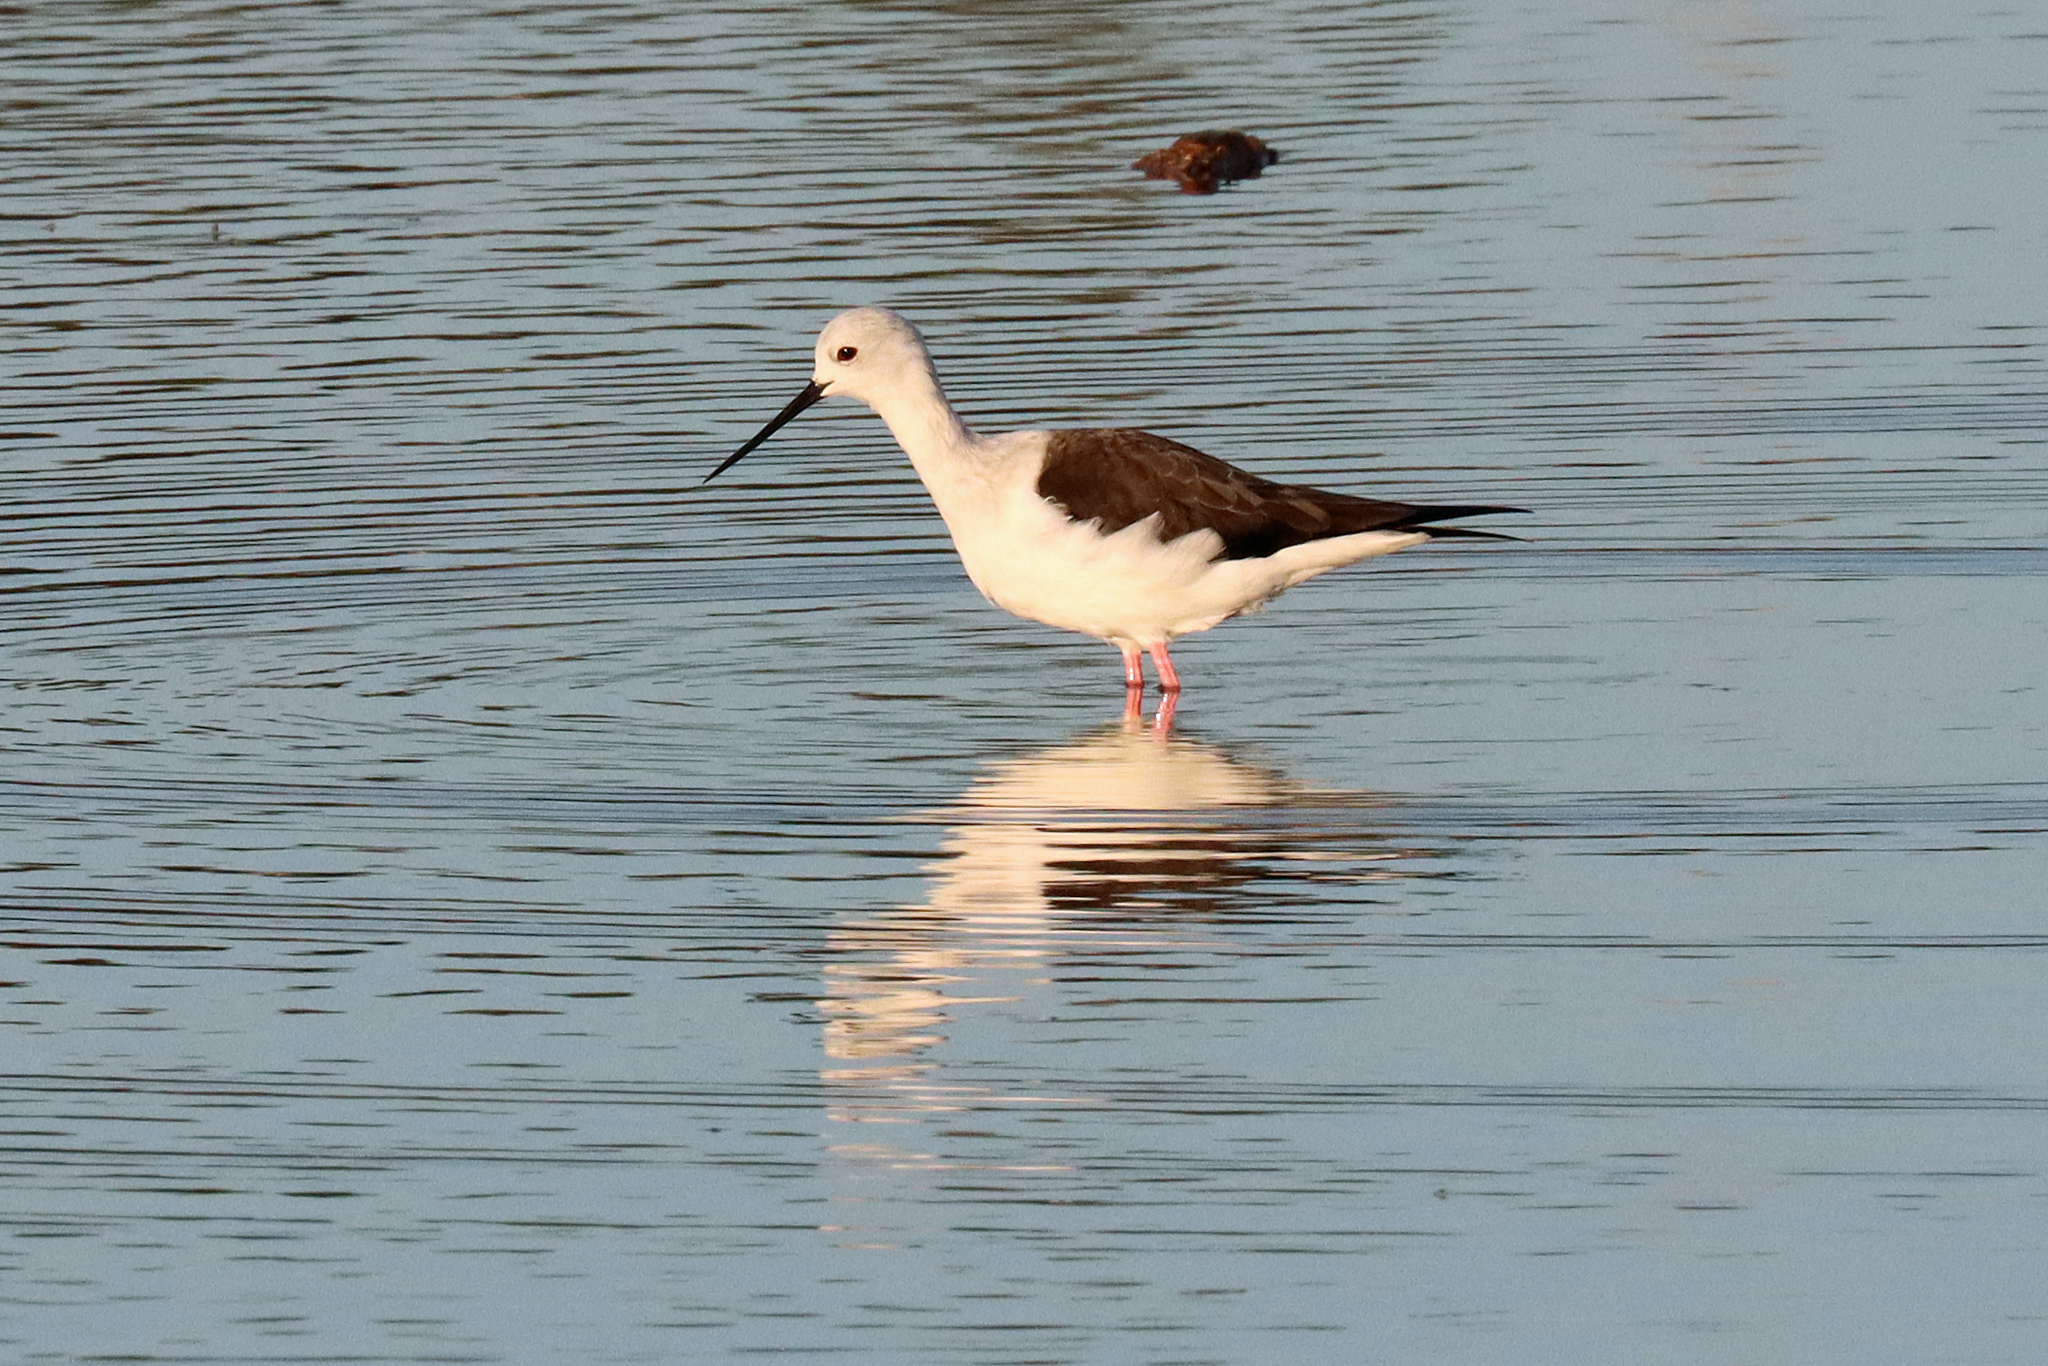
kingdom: Animalia
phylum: Chordata
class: Aves
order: Charadriiformes
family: Recurvirostridae
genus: Himantopus
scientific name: Himantopus himantopus
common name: Black-winged stilt
